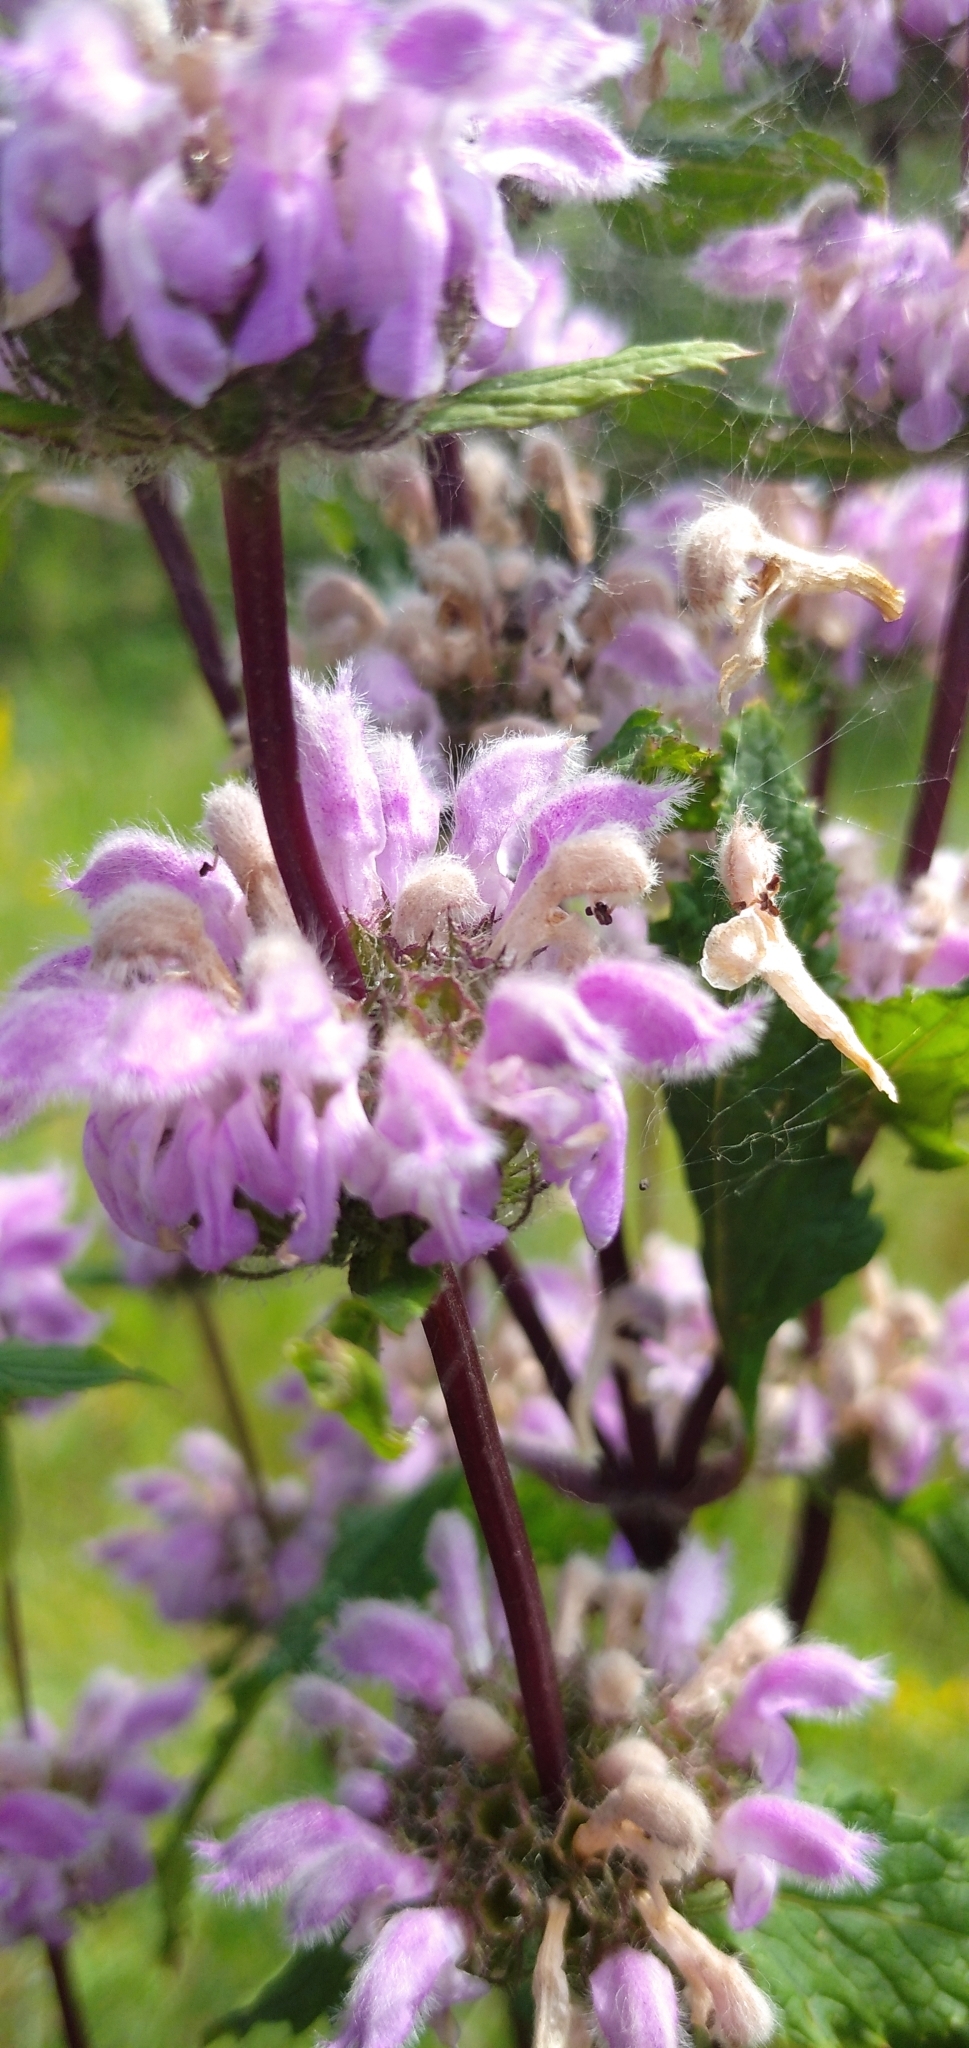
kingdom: Plantae
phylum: Tracheophyta
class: Magnoliopsida
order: Lamiales
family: Lamiaceae
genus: Phlomoides
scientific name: Phlomoides tuberosa
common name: Tuberous jerusalem sage
